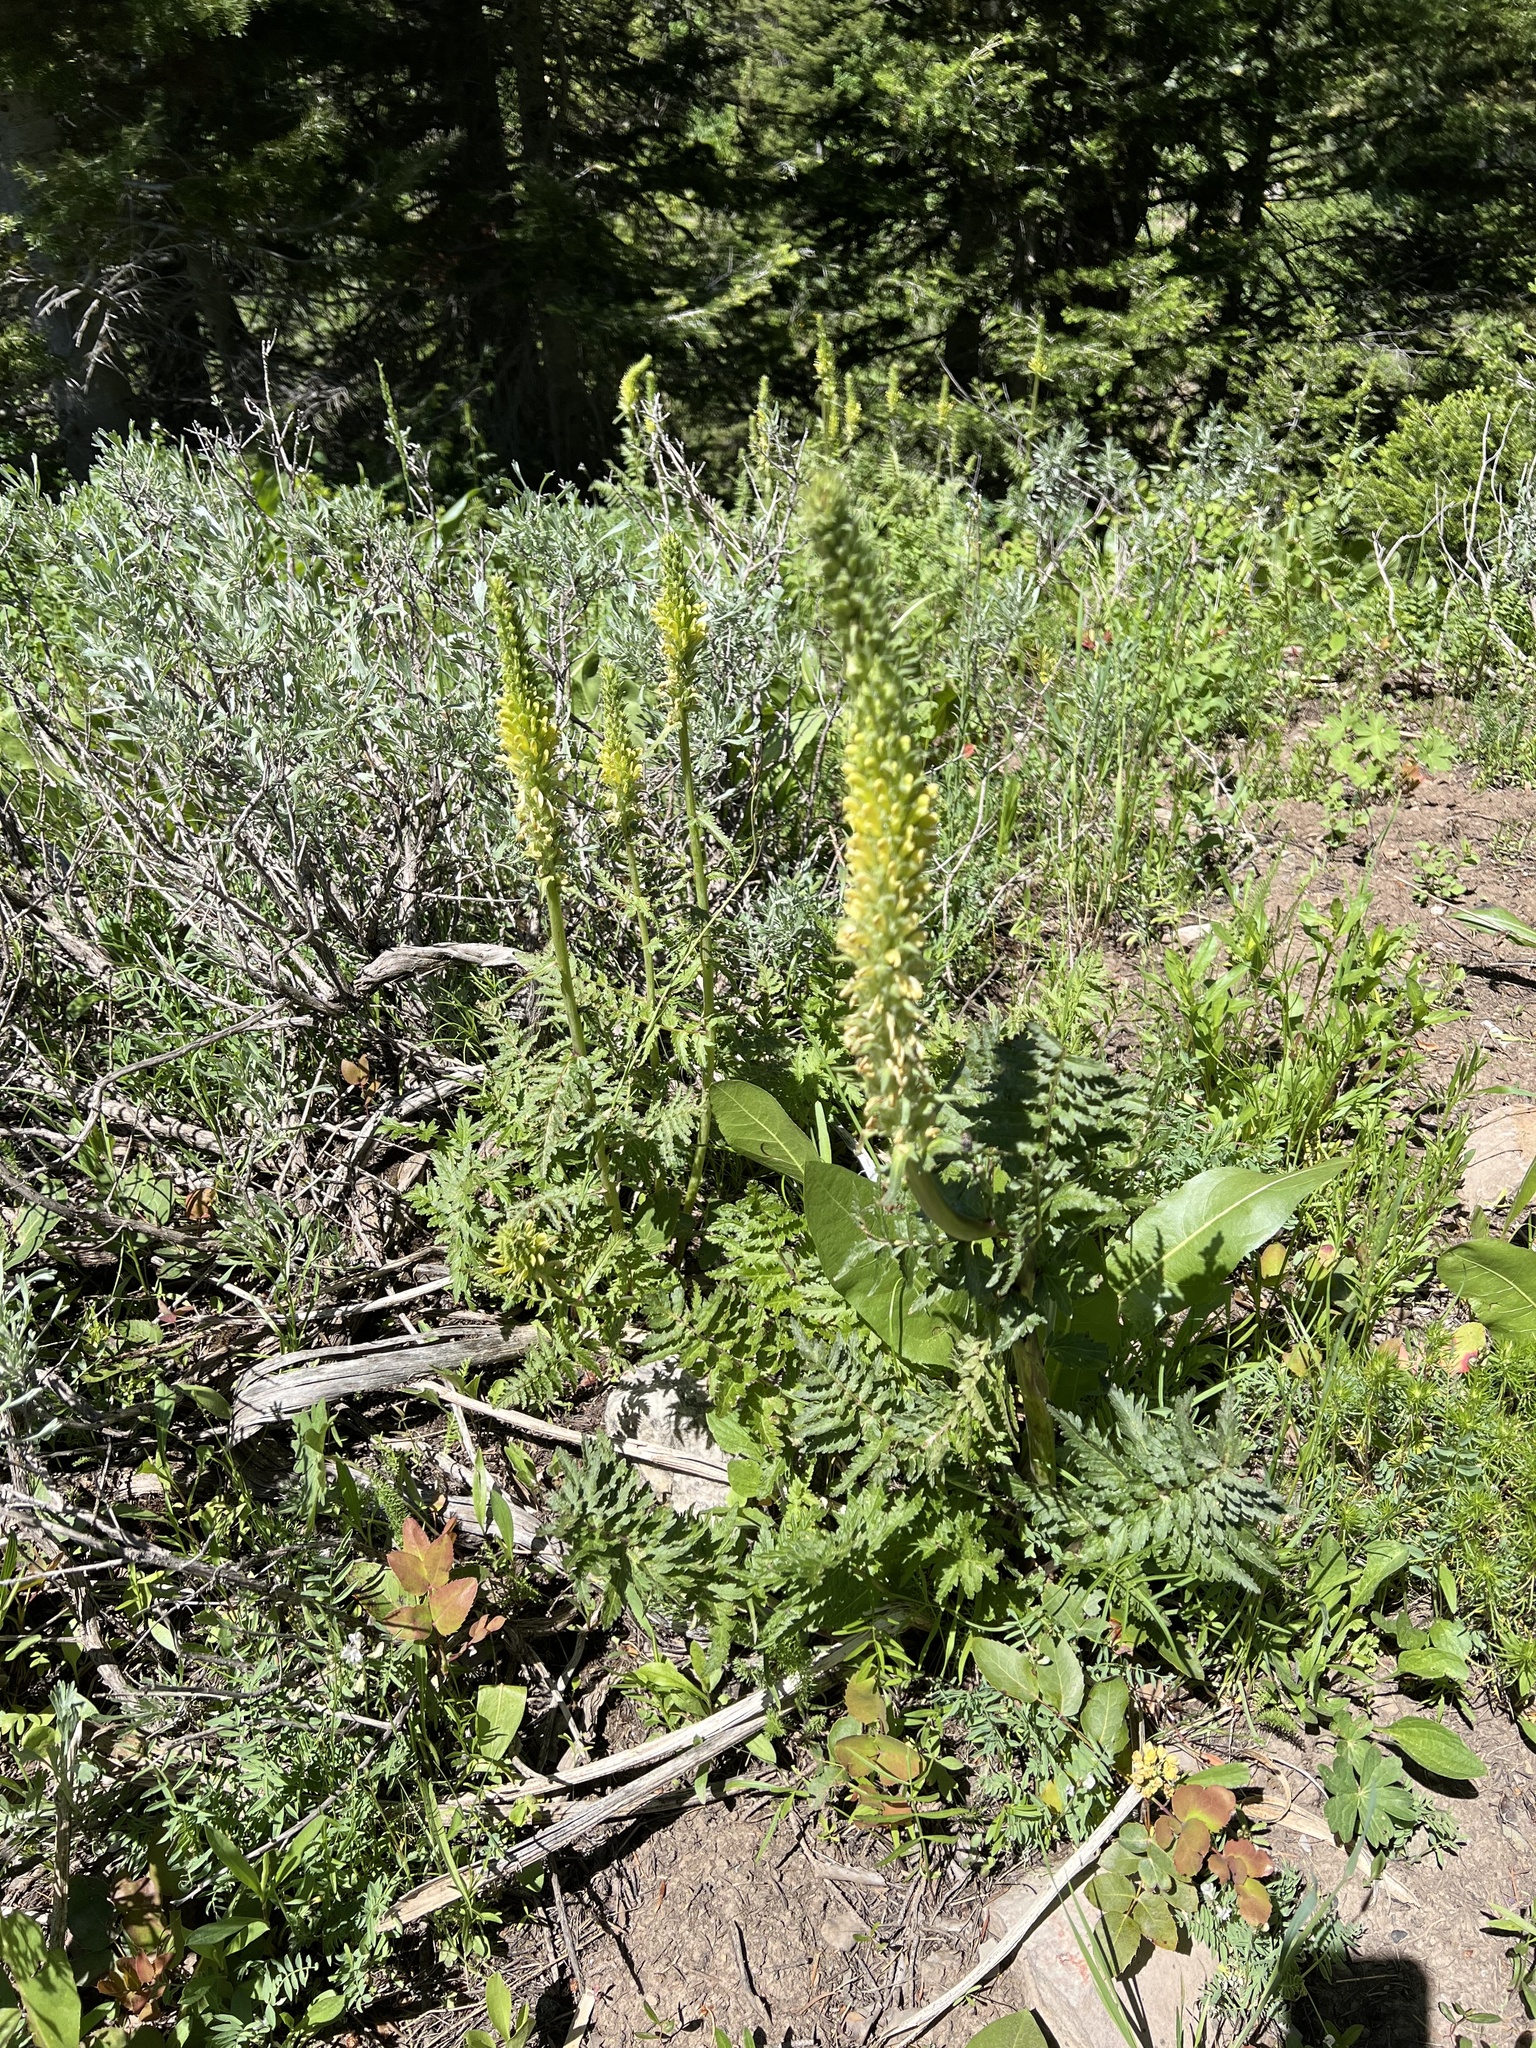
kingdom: Plantae
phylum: Tracheophyta
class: Magnoliopsida
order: Lamiales
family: Orobanchaceae
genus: Pedicularis
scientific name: Pedicularis bracteosa
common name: Bracted lousewort
